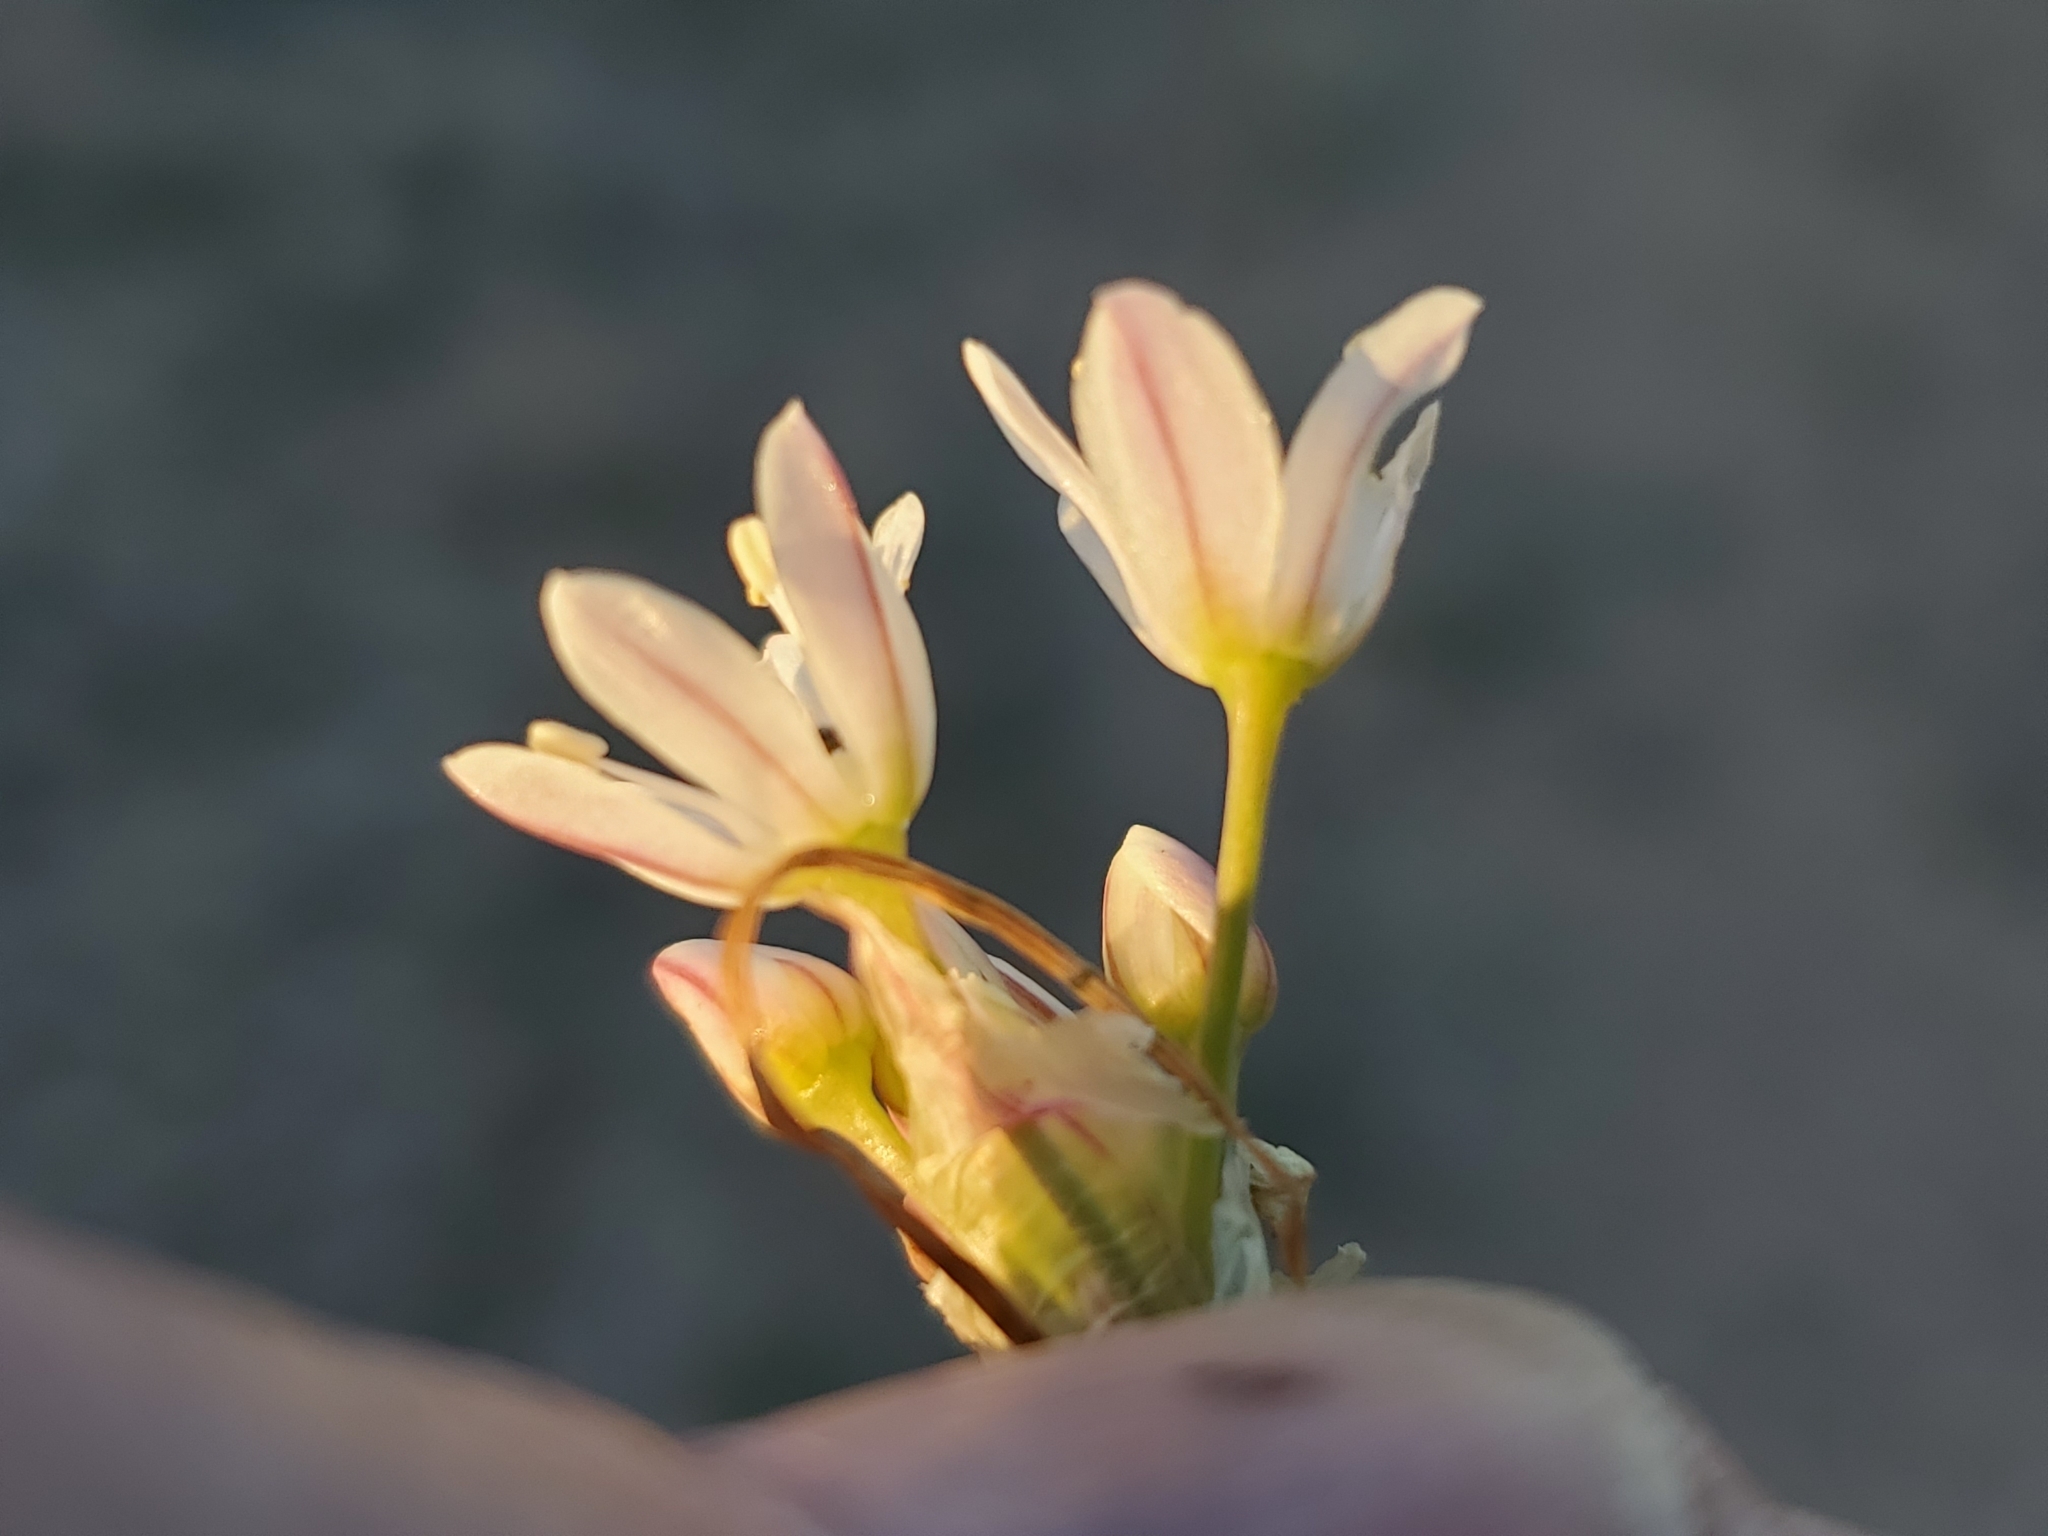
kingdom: Plantae
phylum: Tracheophyta
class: Liliopsida
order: Asparagales
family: Amaryllidaceae
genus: Allium
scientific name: Allium drummondii
